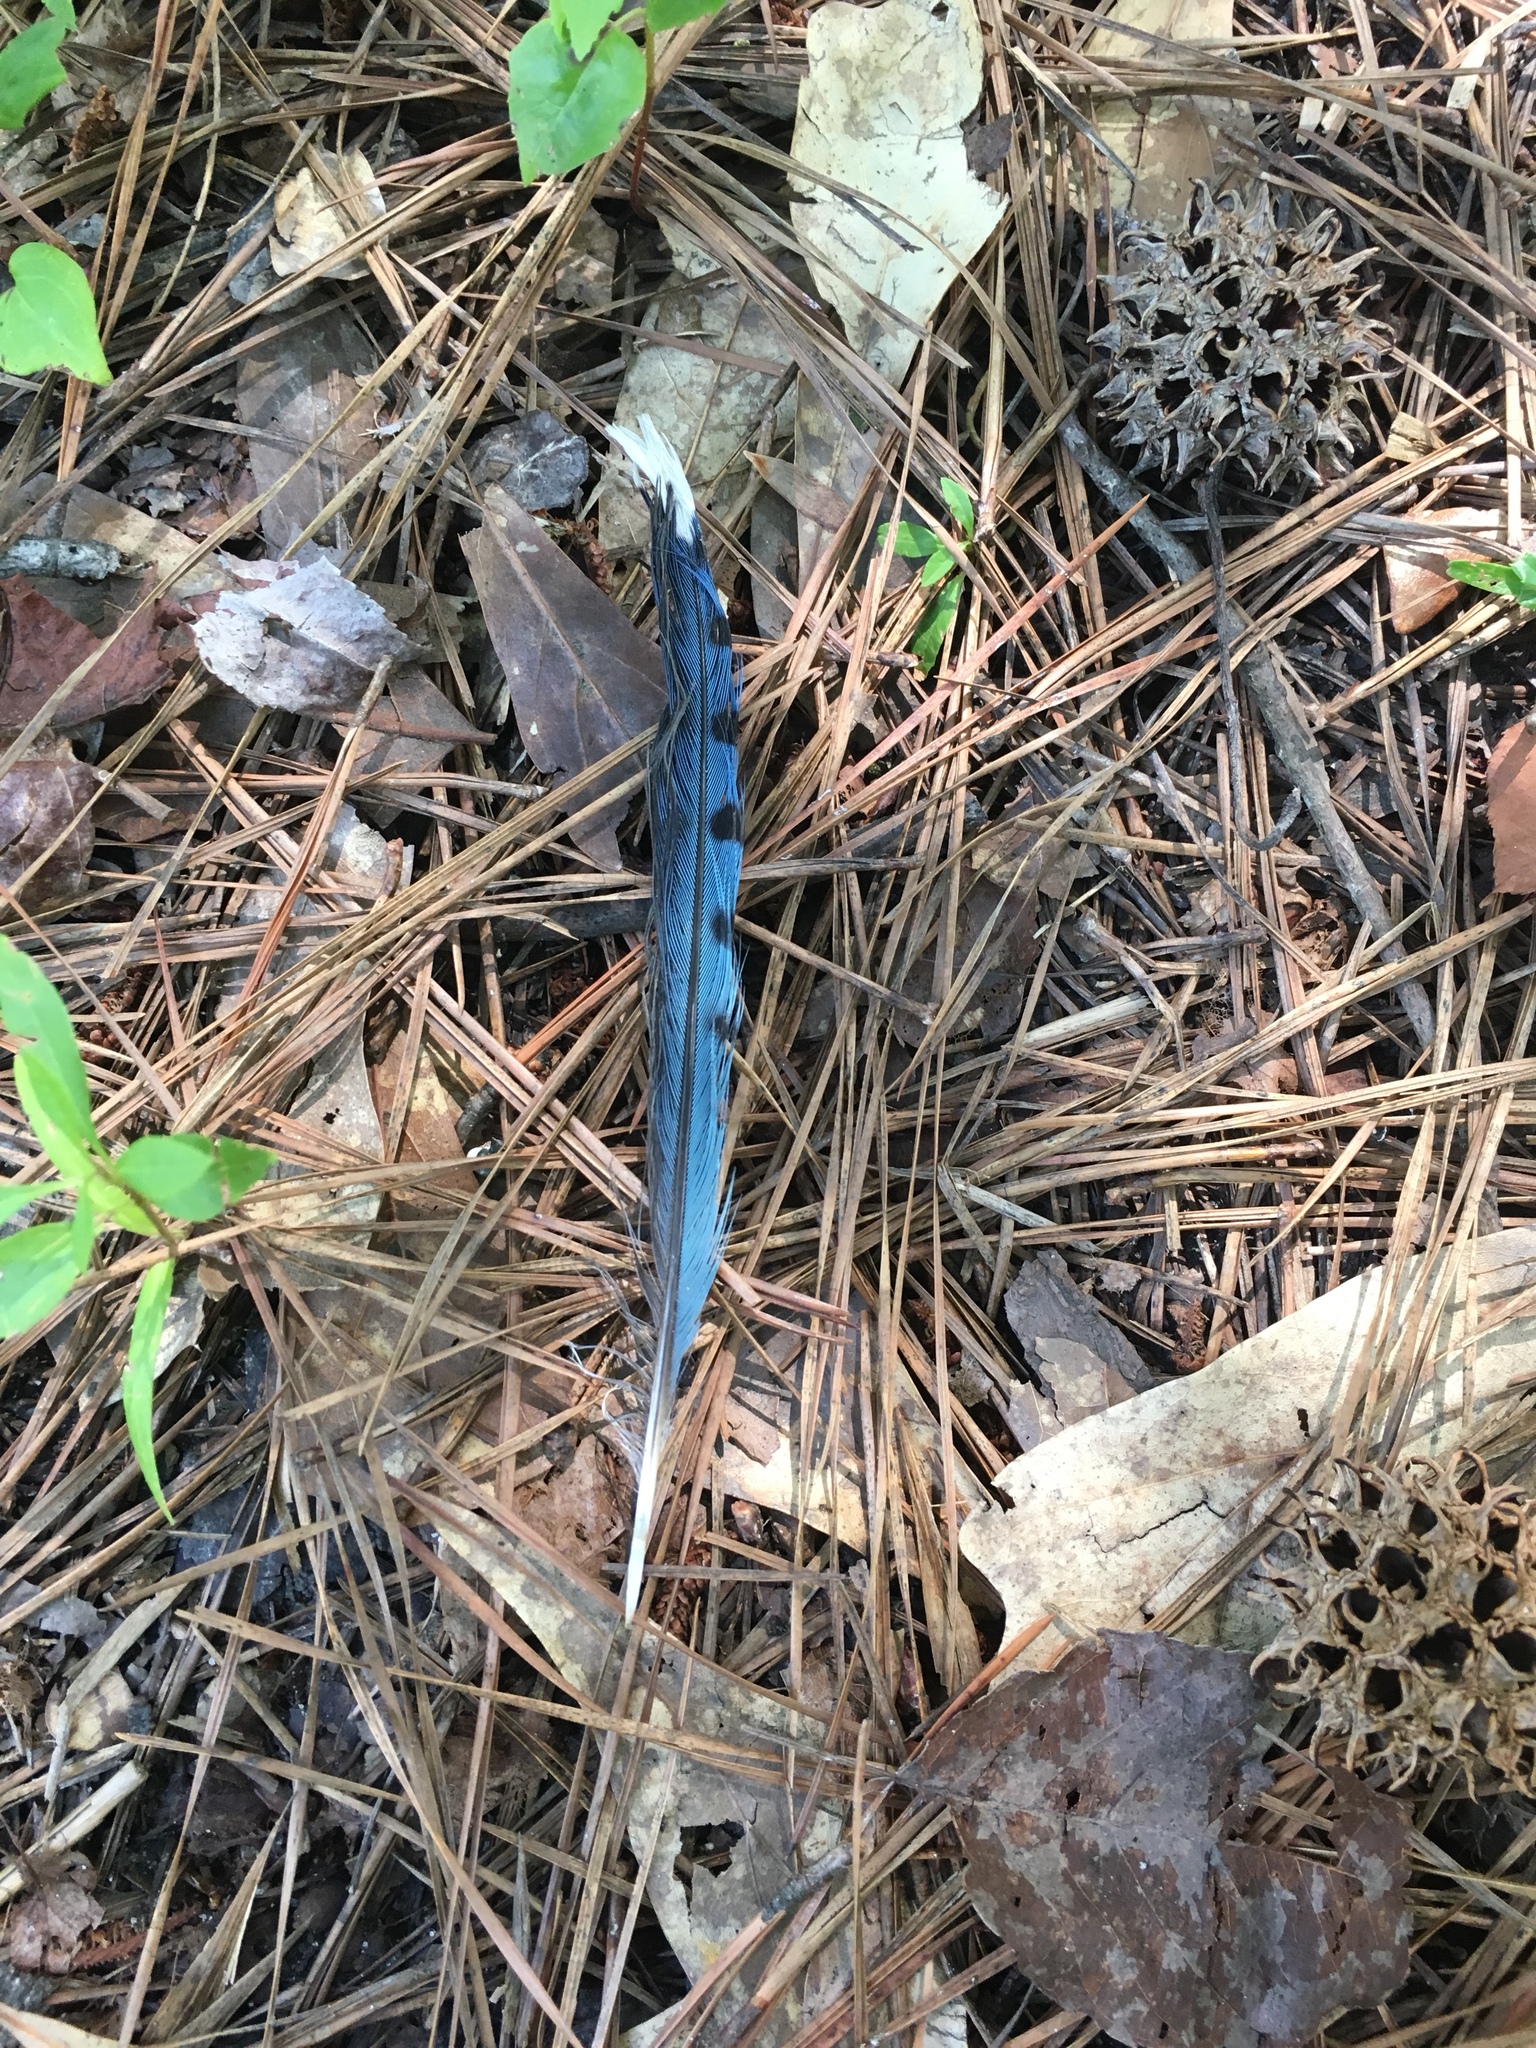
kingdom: Animalia
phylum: Chordata
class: Aves
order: Passeriformes
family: Corvidae
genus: Cyanocitta
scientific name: Cyanocitta cristata
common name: Blue jay
